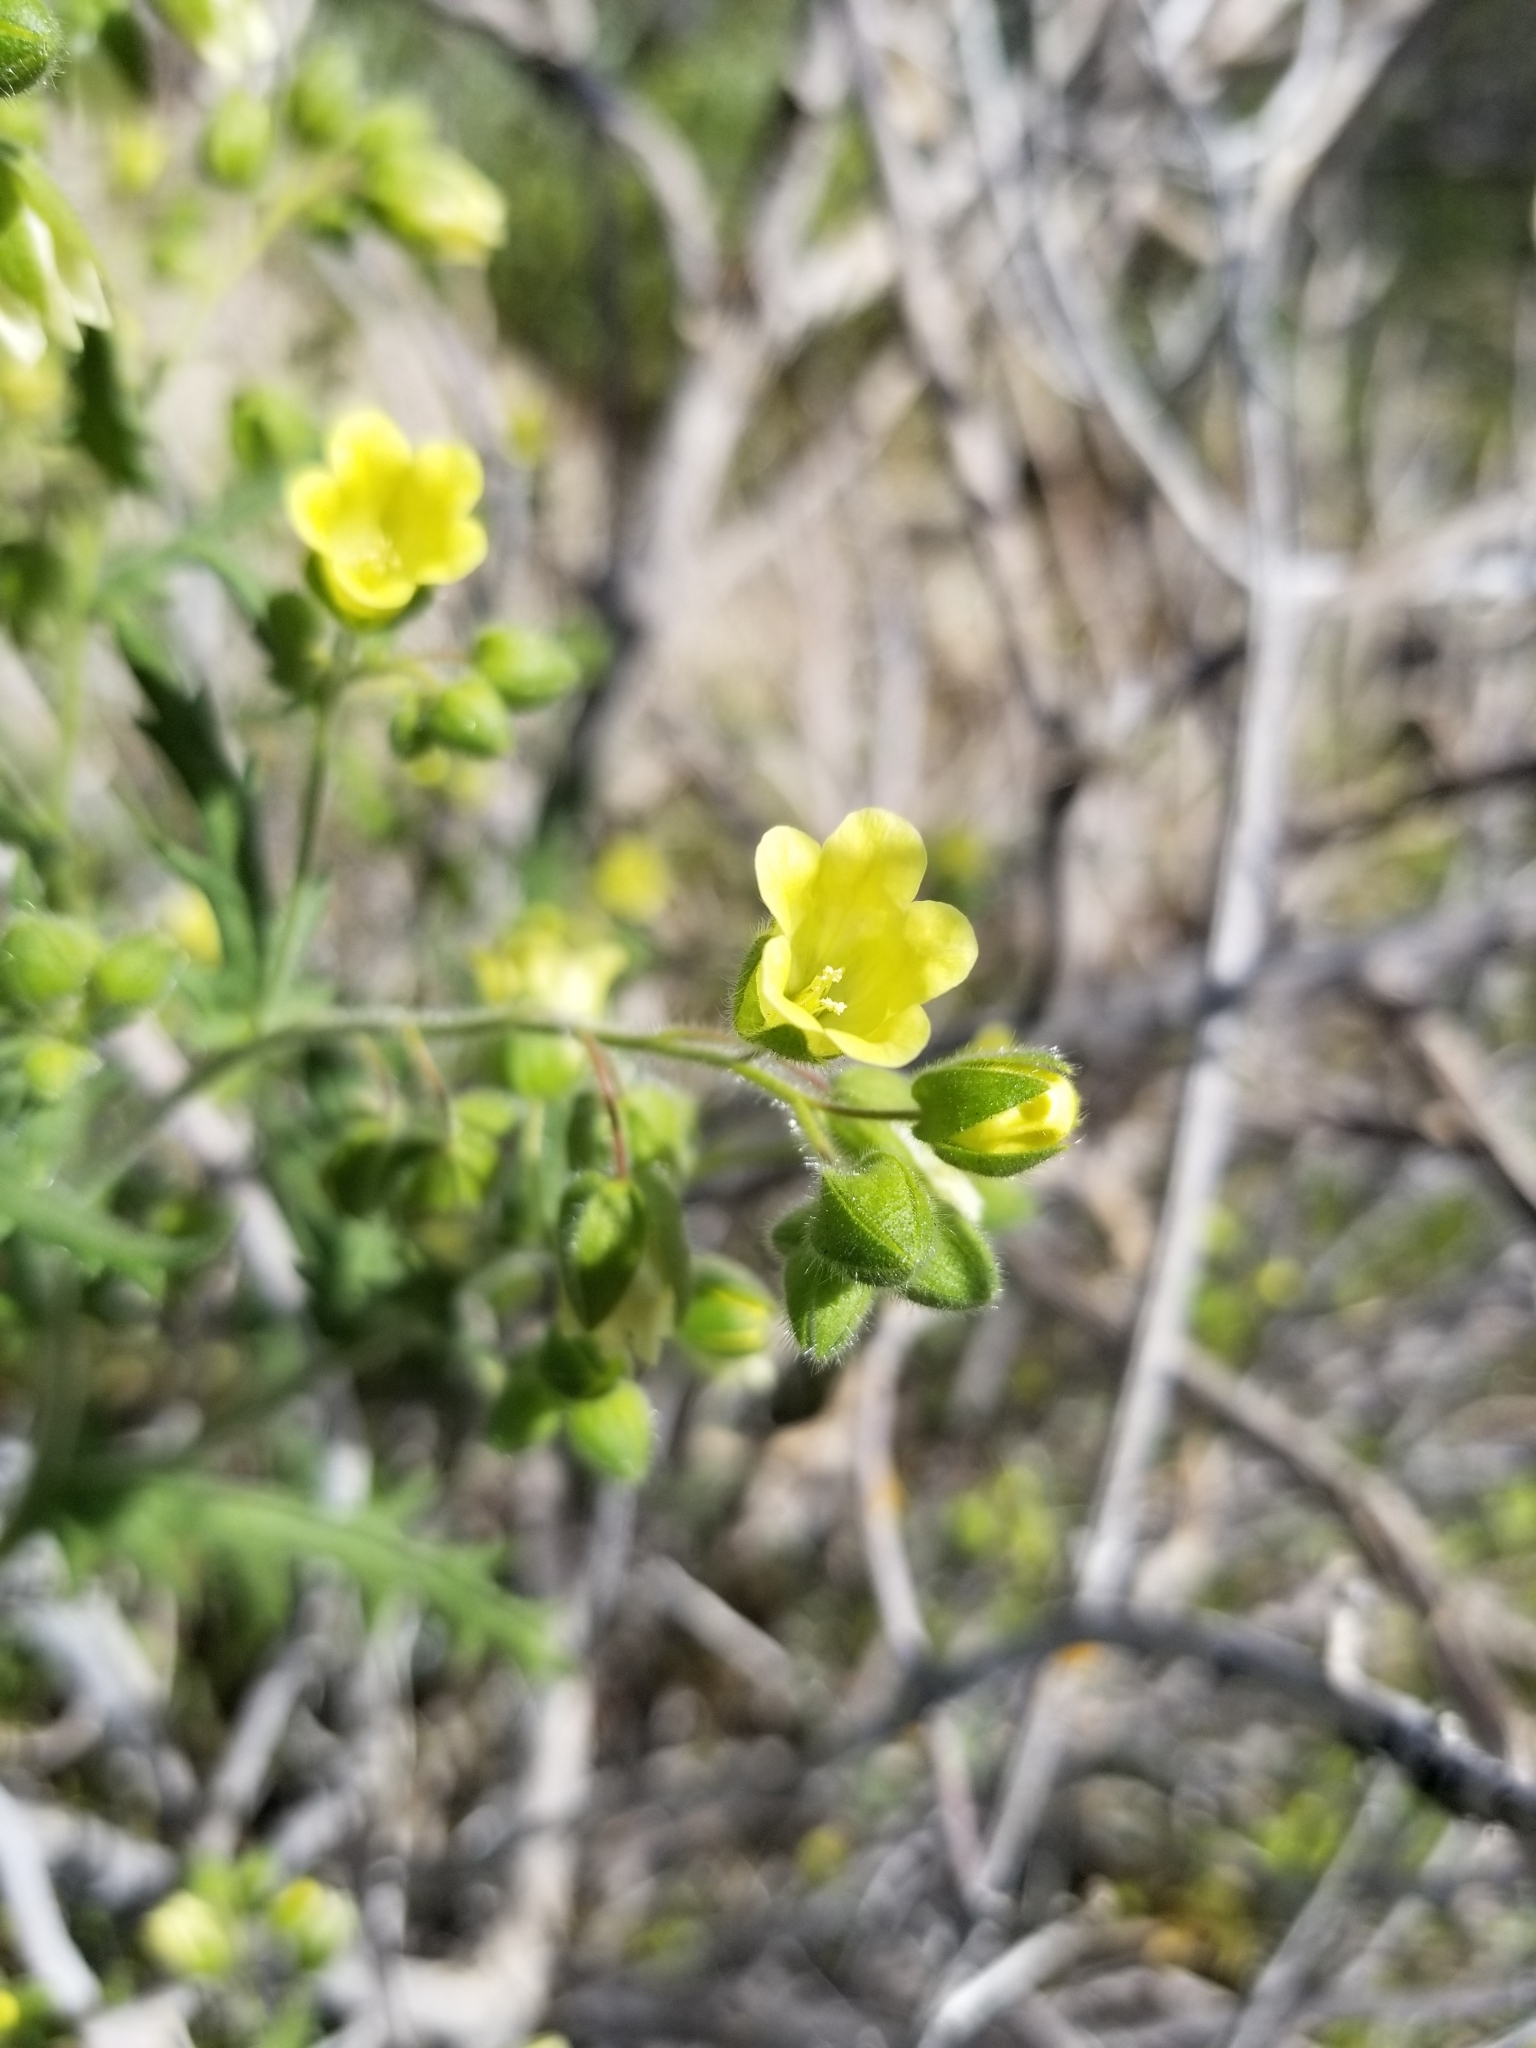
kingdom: Plantae
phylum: Tracheophyta
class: Magnoliopsida
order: Boraginales
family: Hydrophyllaceae
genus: Emmenanthe
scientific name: Emmenanthe penduliflora
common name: Whispering-bells
